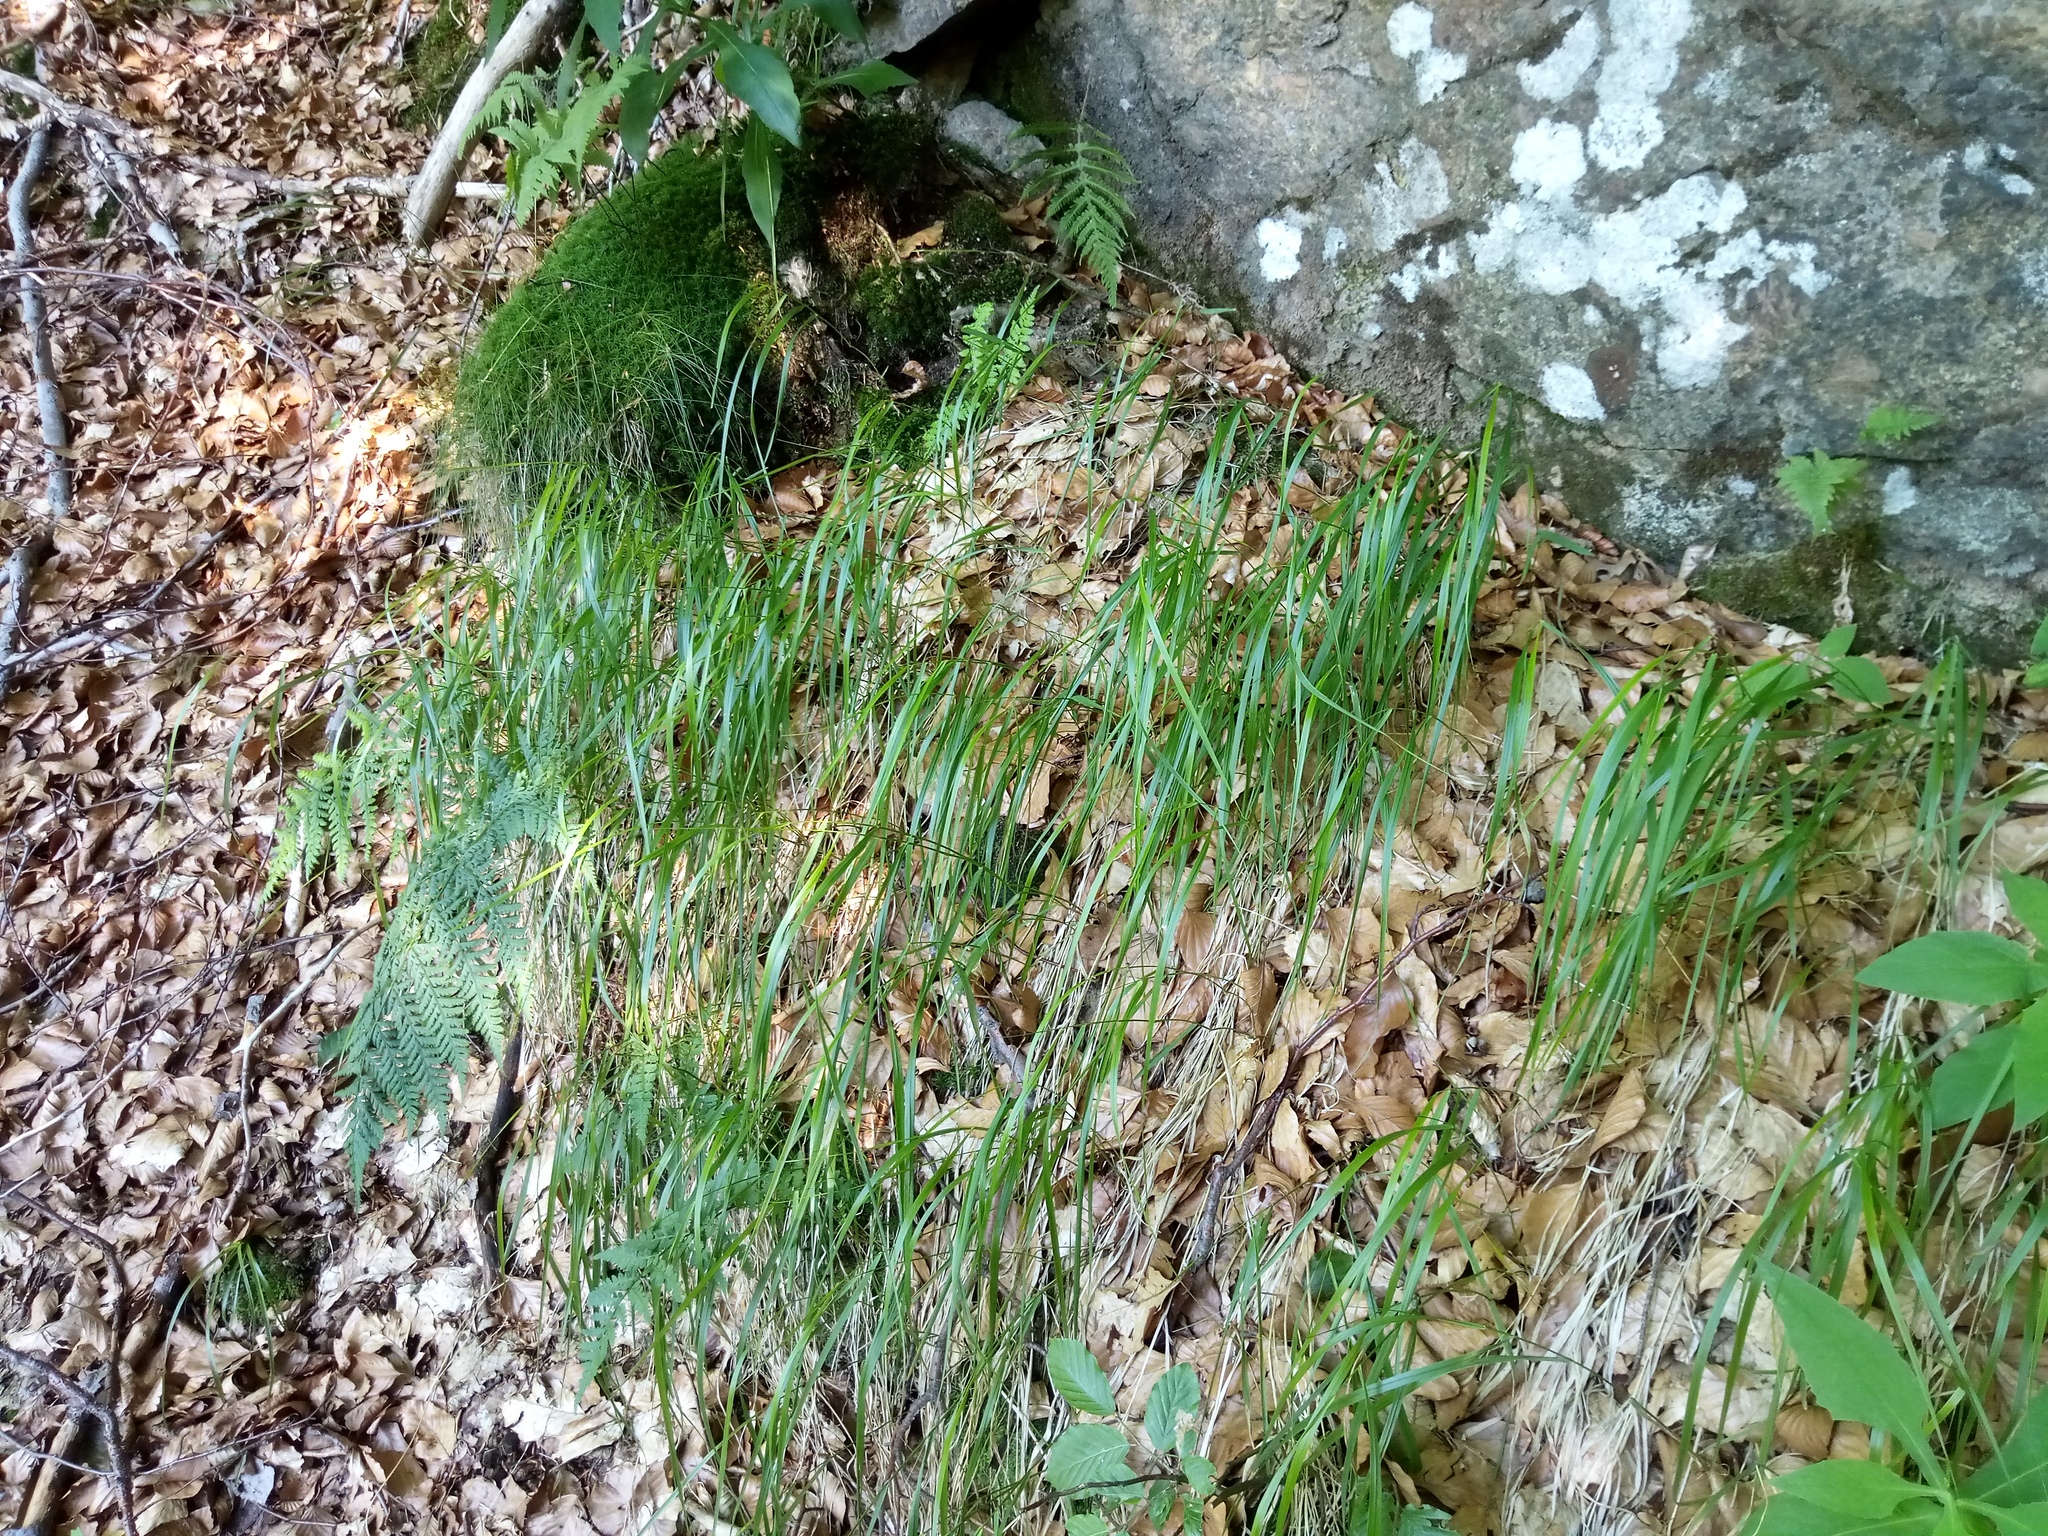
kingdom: Plantae
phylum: Tracheophyta
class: Liliopsida
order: Poales
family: Poaceae
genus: Calamagrostis
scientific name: Calamagrostis villosa
